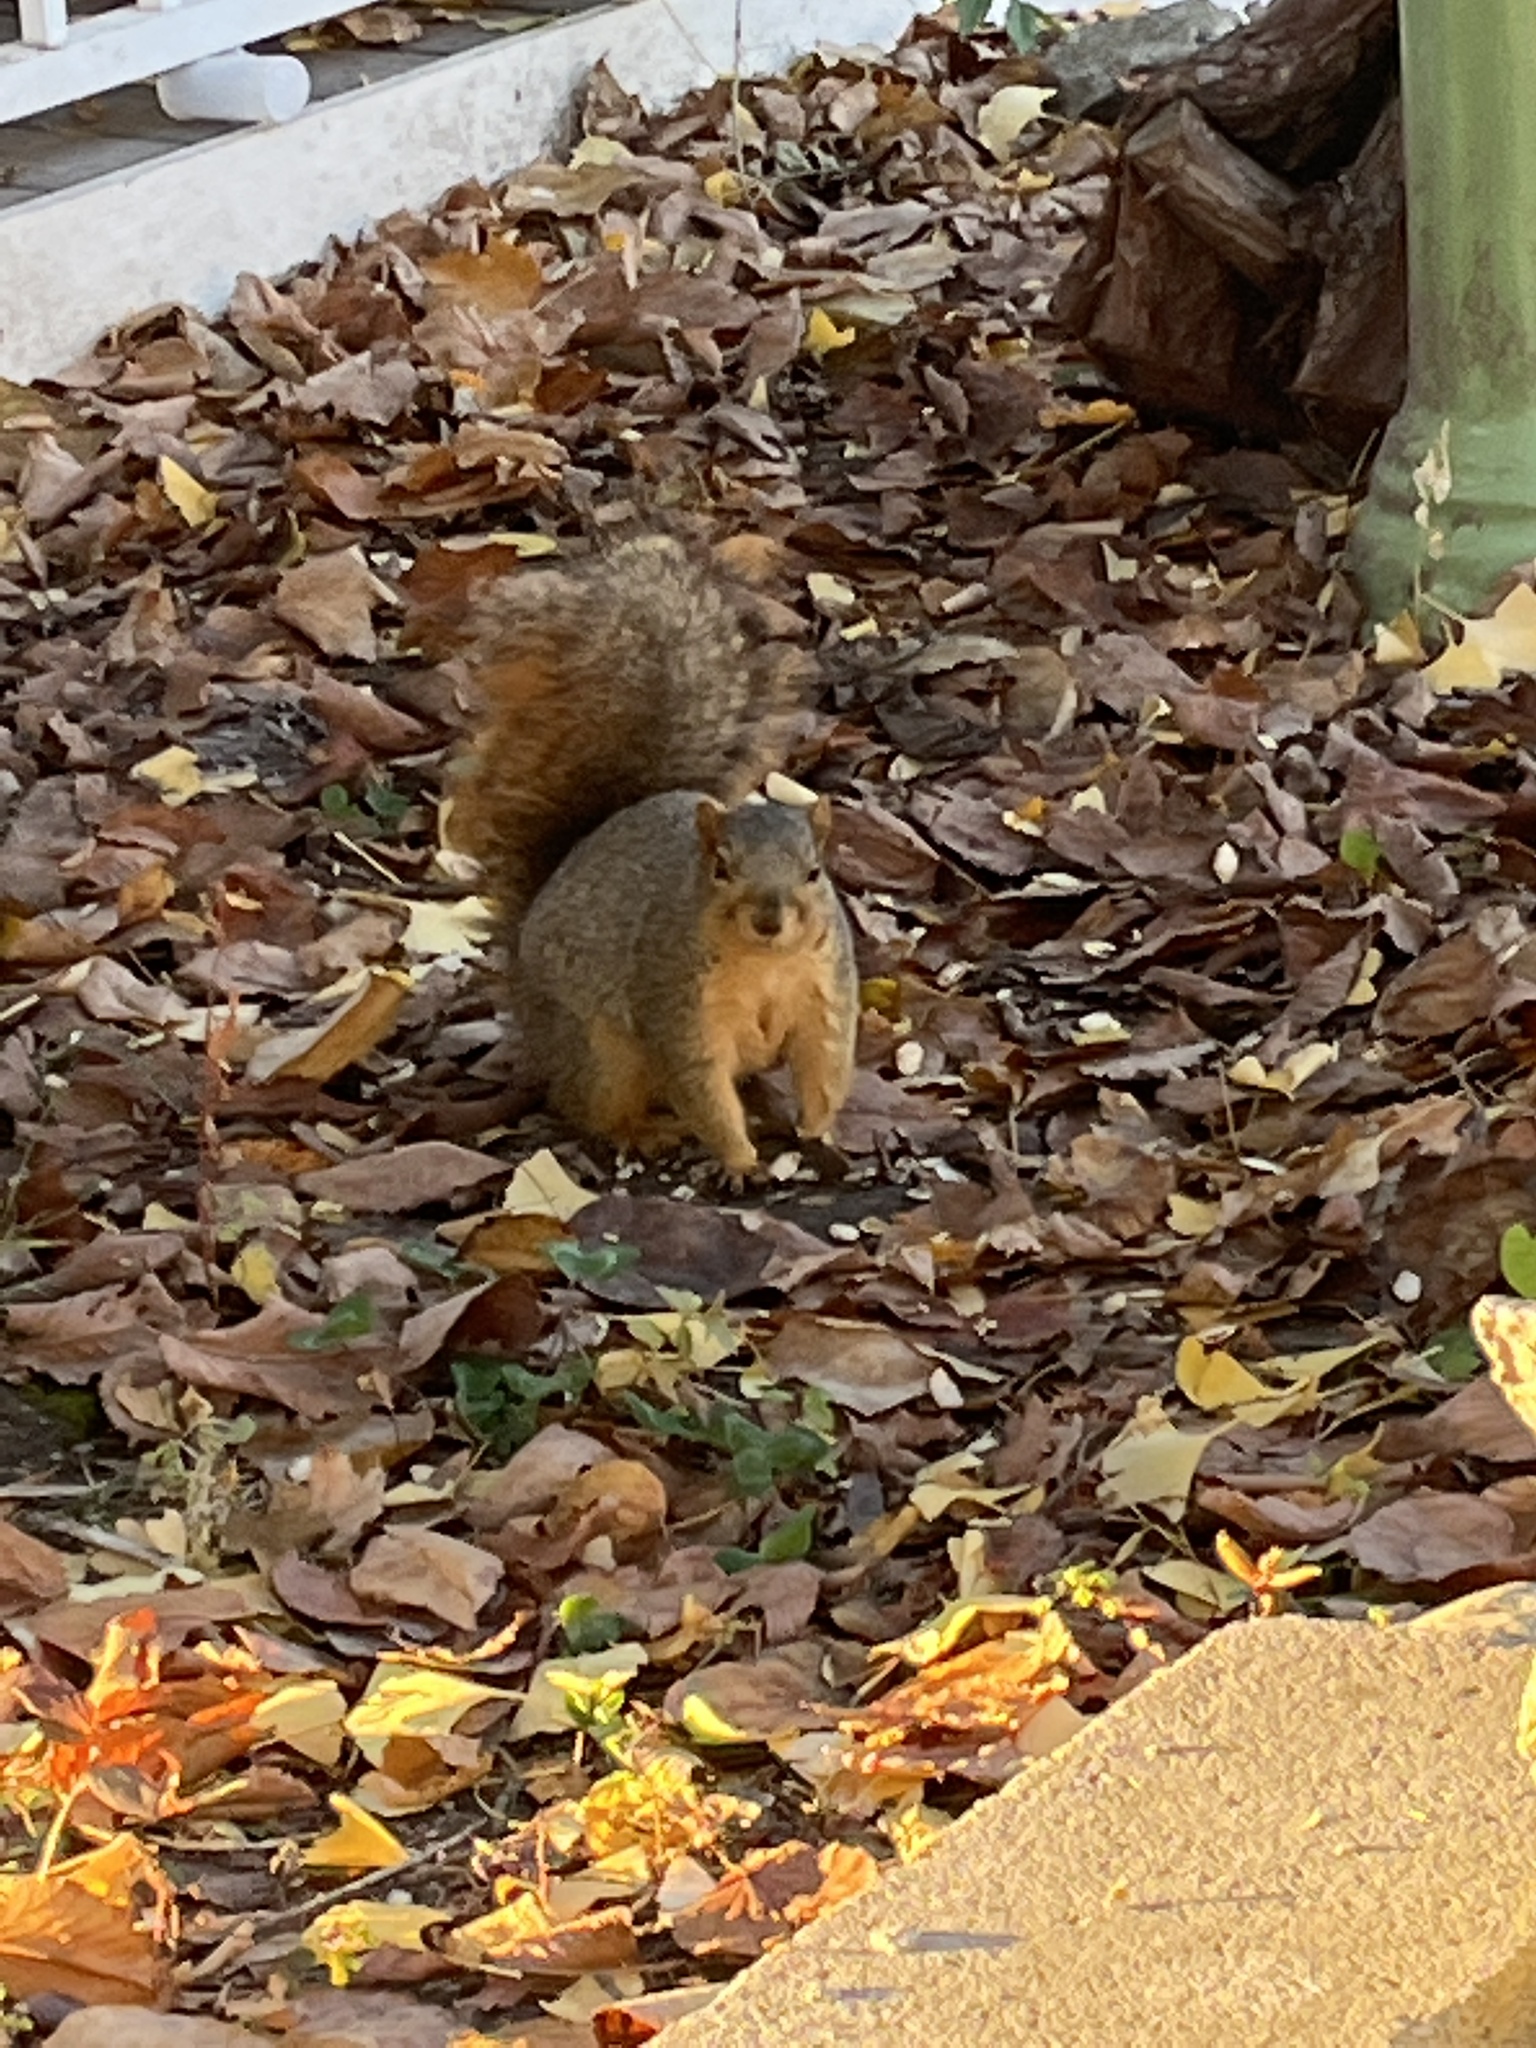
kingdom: Animalia
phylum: Chordata
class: Mammalia
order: Rodentia
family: Sciuridae
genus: Sciurus
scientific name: Sciurus niger
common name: Fox squirrel
